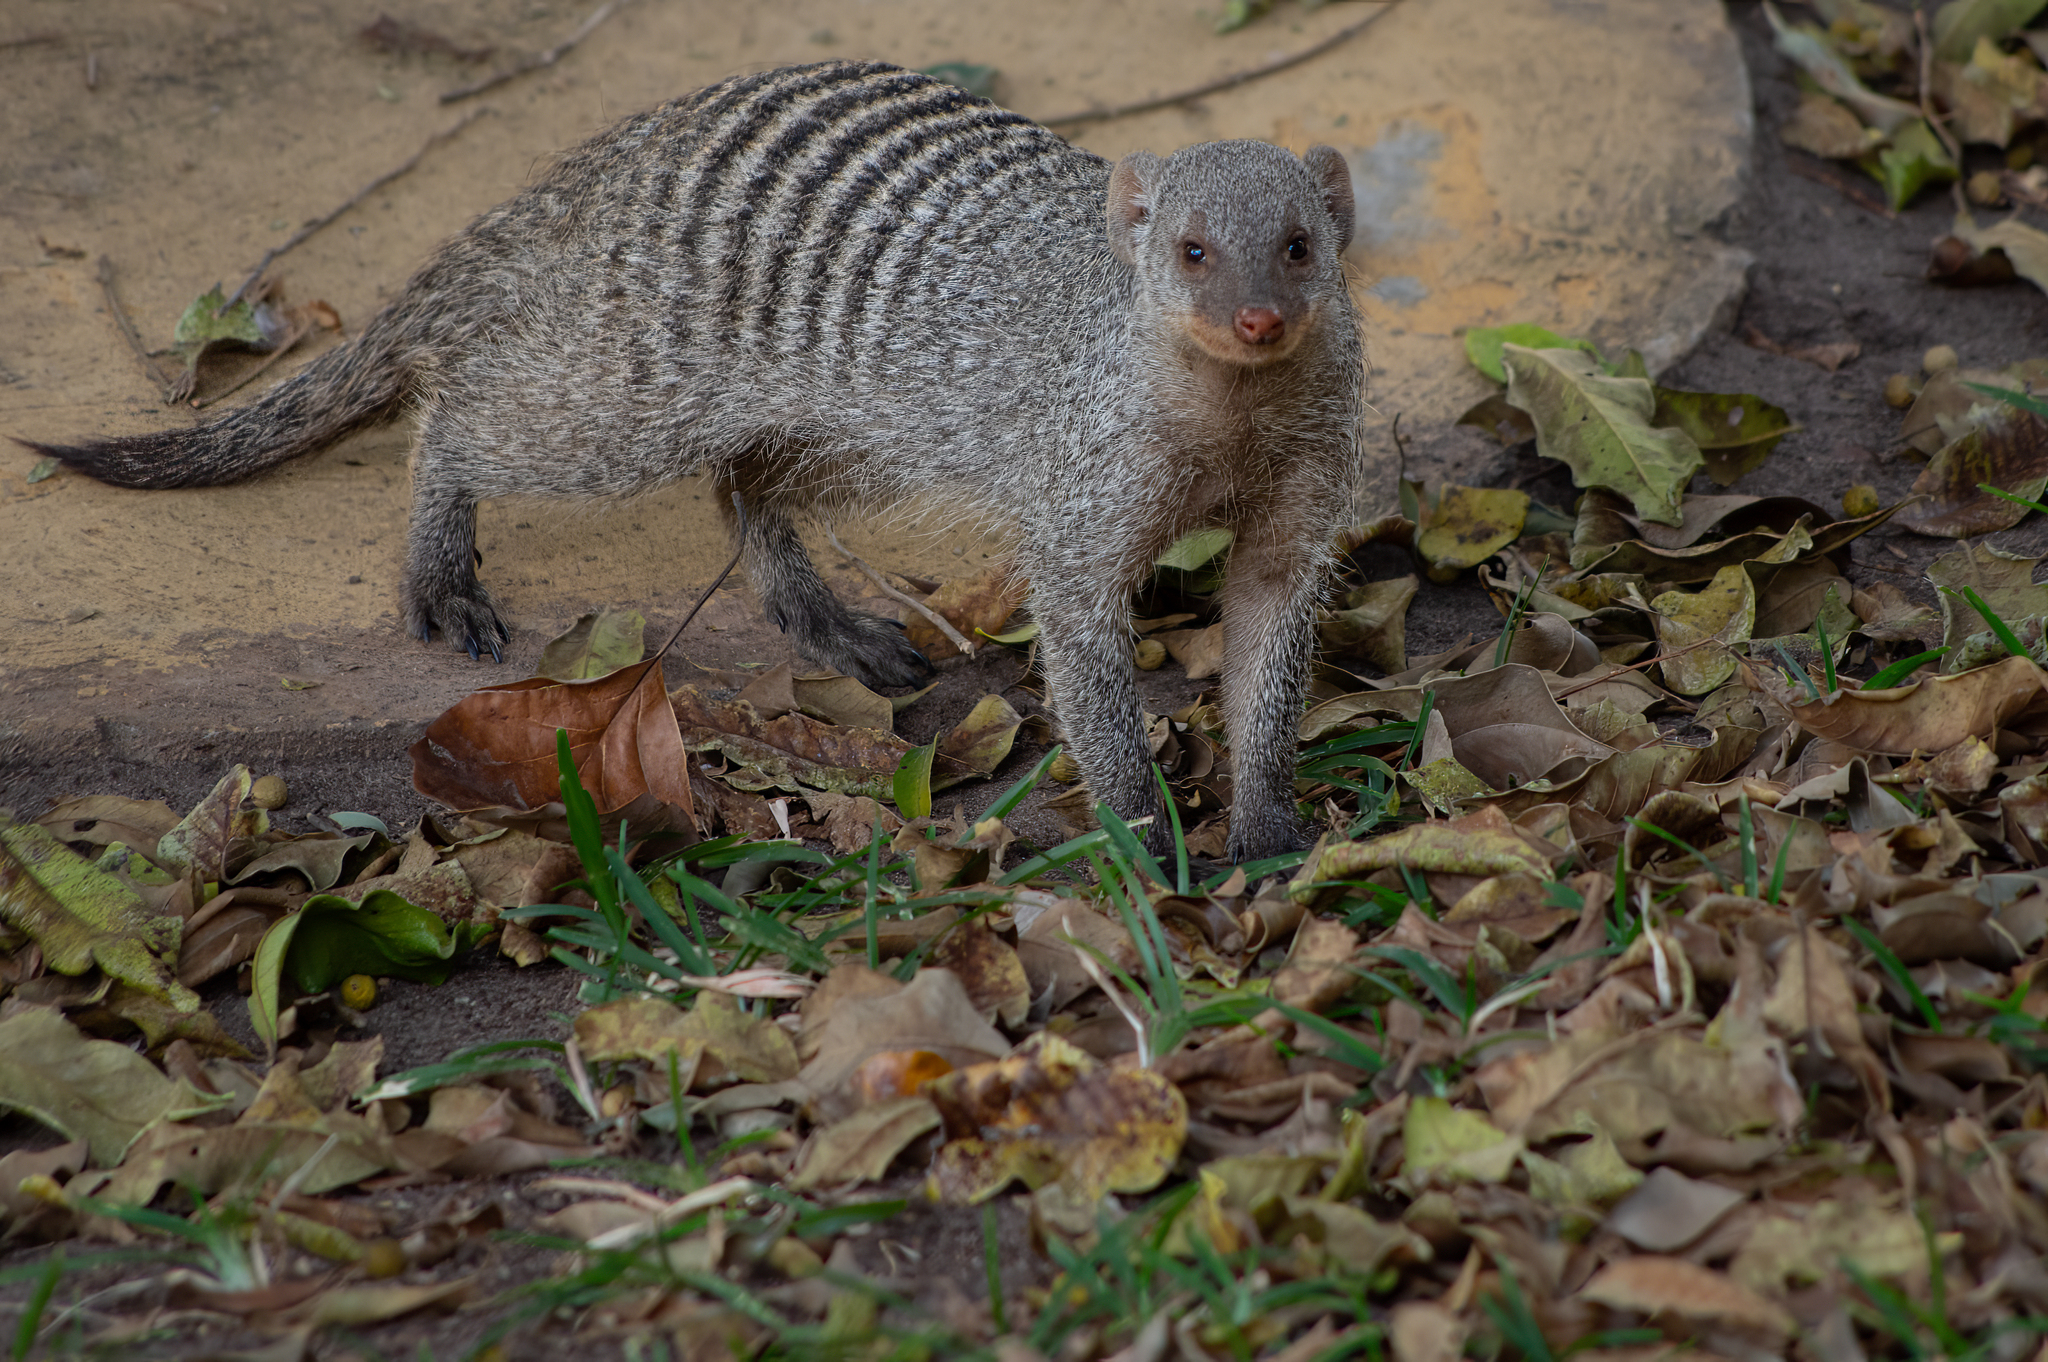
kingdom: Animalia
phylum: Chordata
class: Mammalia
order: Carnivora
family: Herpestidae
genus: Mungos
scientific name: Mungos mungo
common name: Banded mongoose
